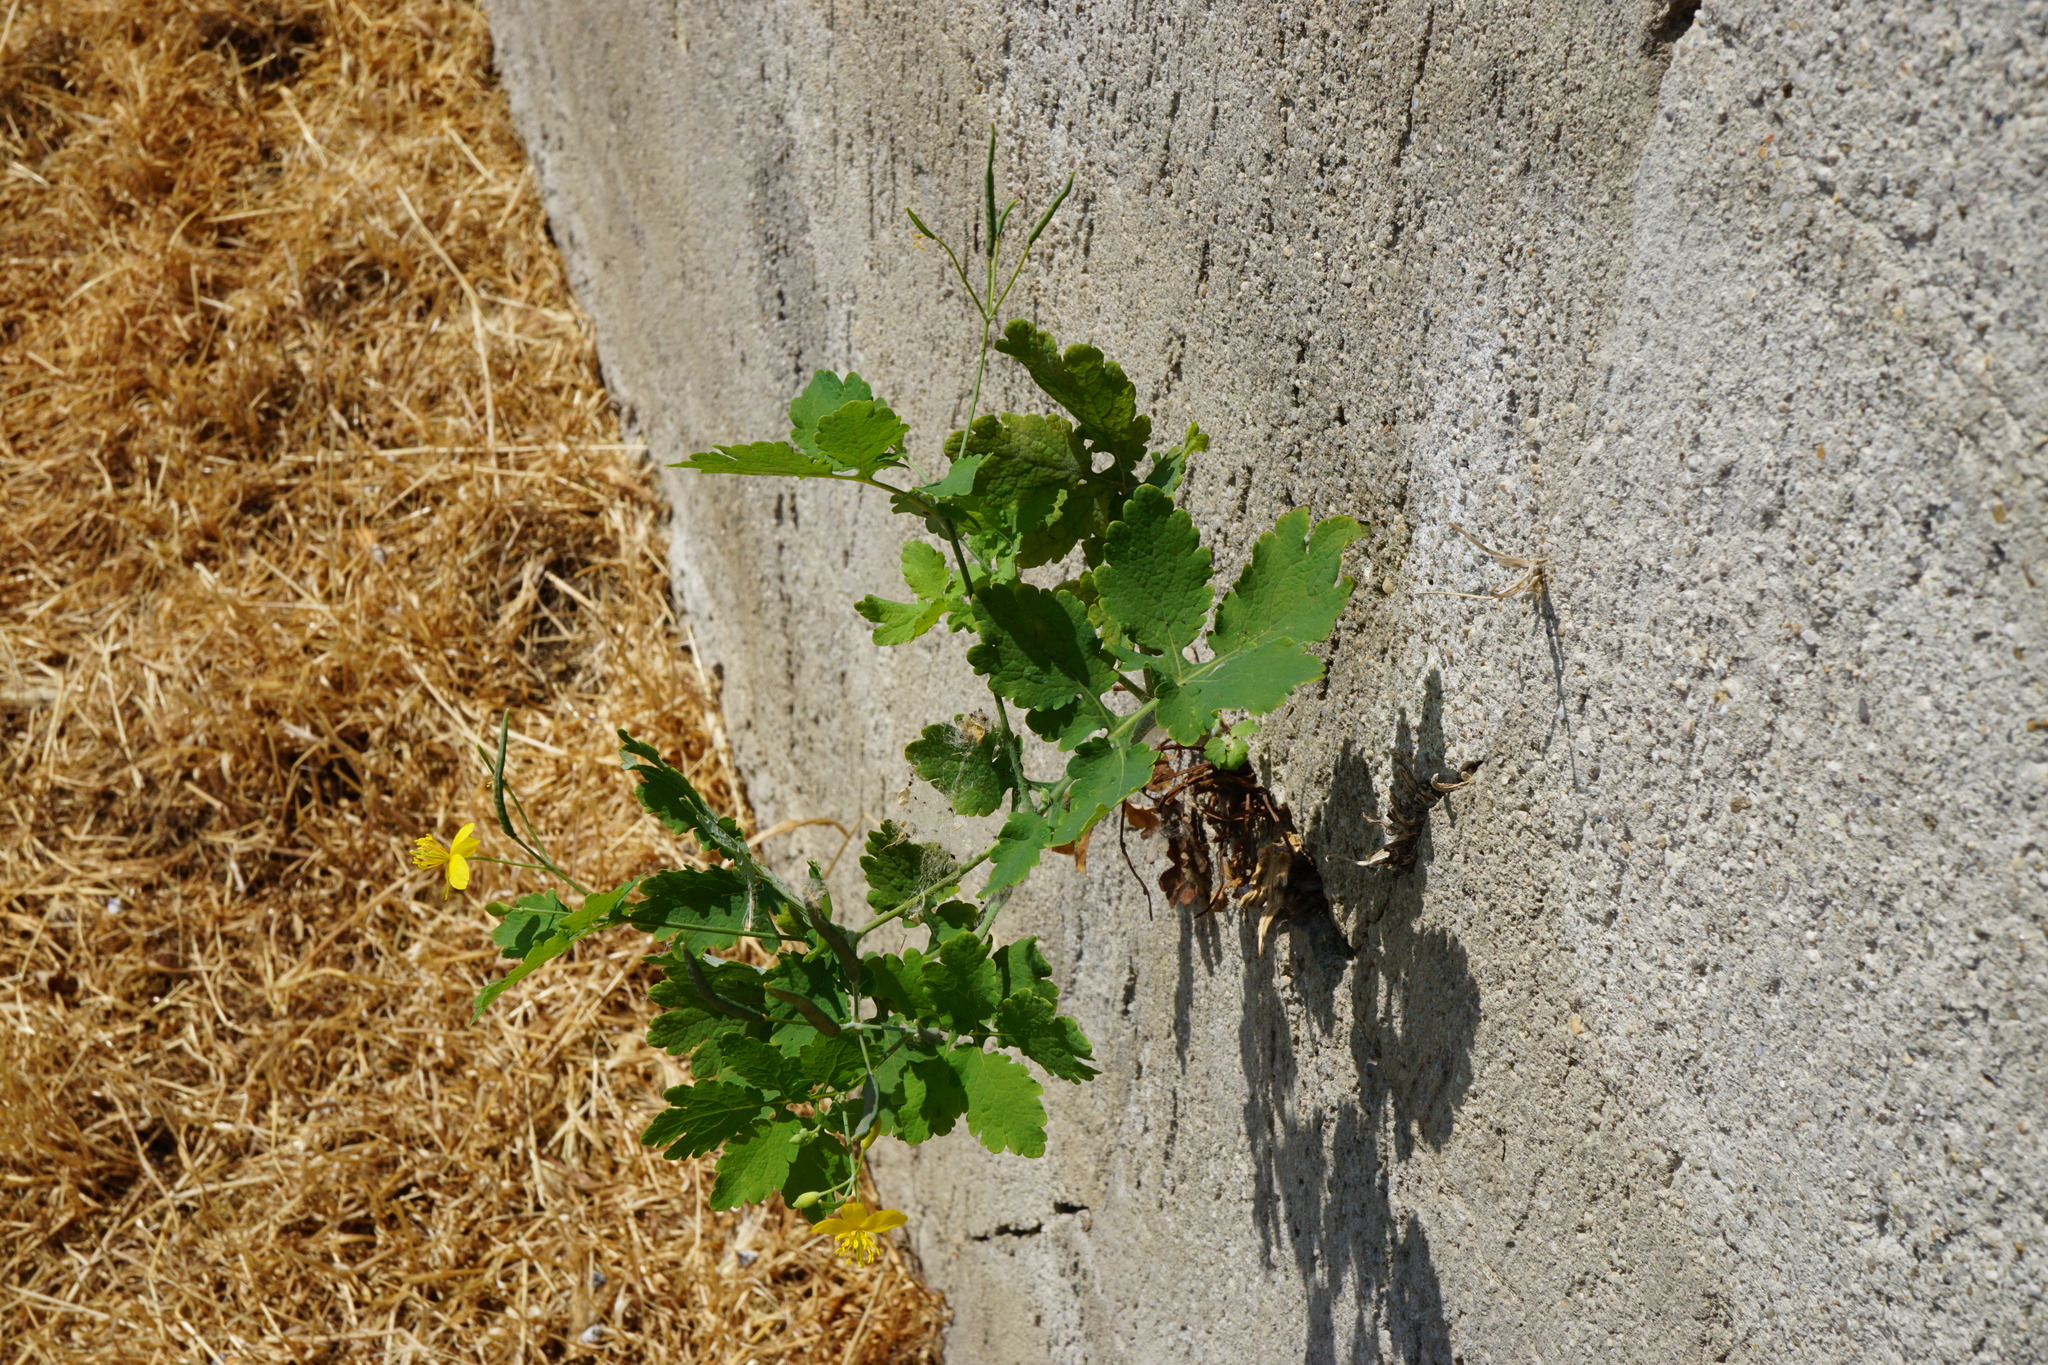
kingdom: Plantae
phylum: Tracheophyta
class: Magnoliopsida
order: Ranunculales
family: Papaveraceae
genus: Chelidonium
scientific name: Chelidonium majus
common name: Greater celandine
